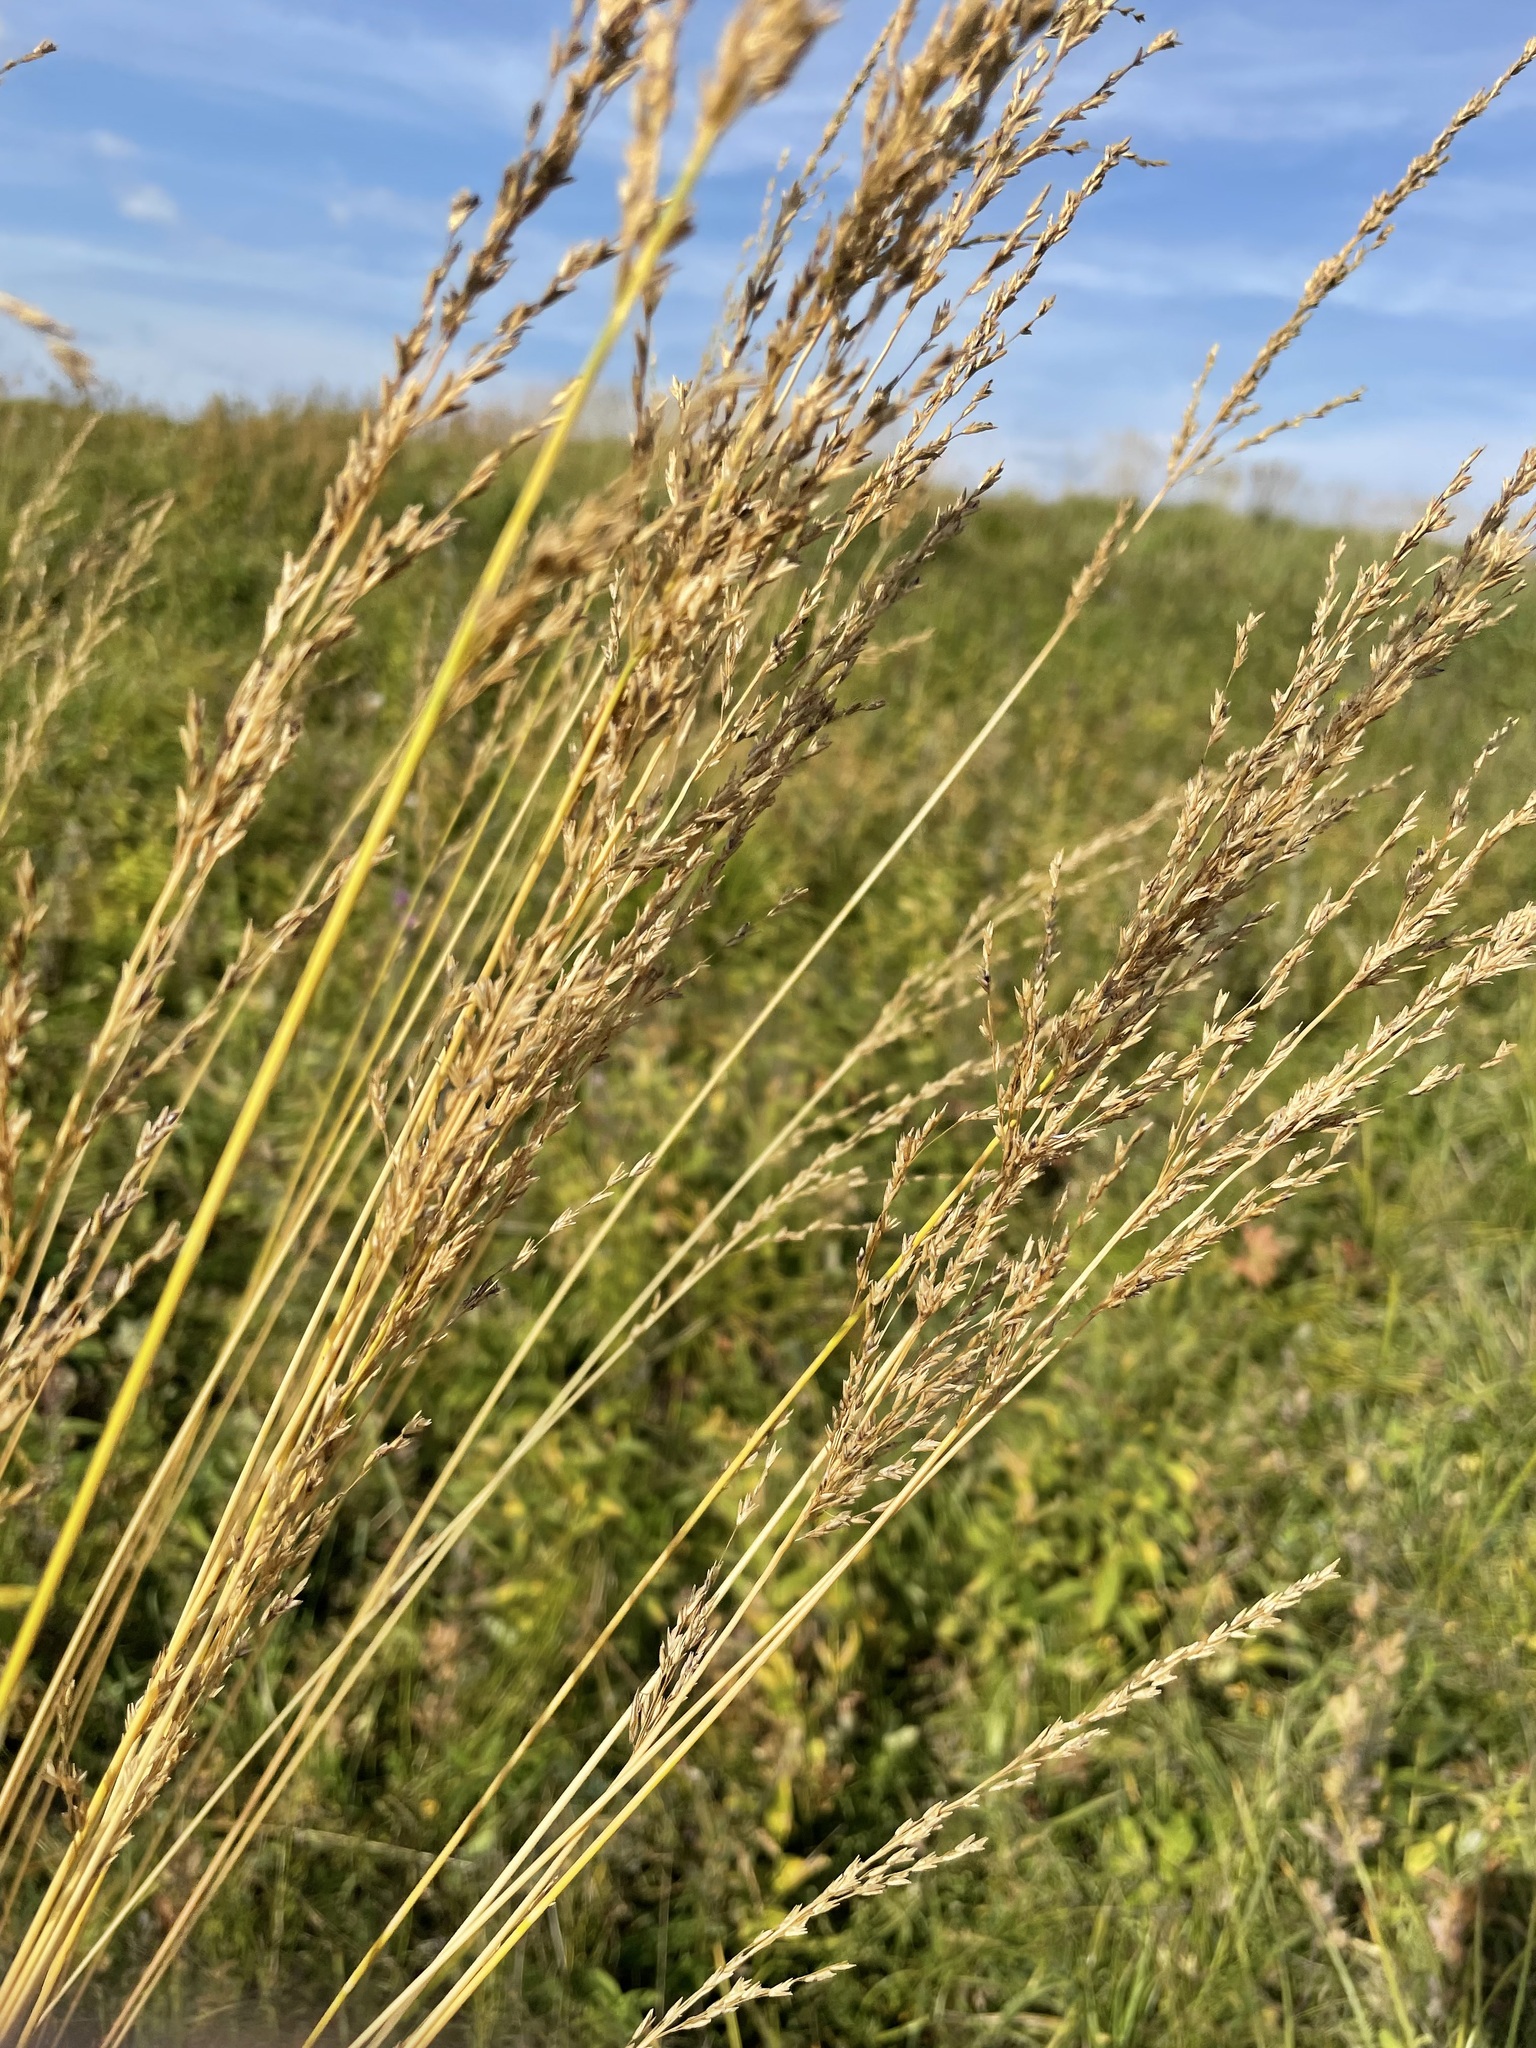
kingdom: Plantae
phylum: Tracheophyta
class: Liliopsida
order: Poales
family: Poaceae
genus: Molinia
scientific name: Molinia caerulea
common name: Purple moor-grass
